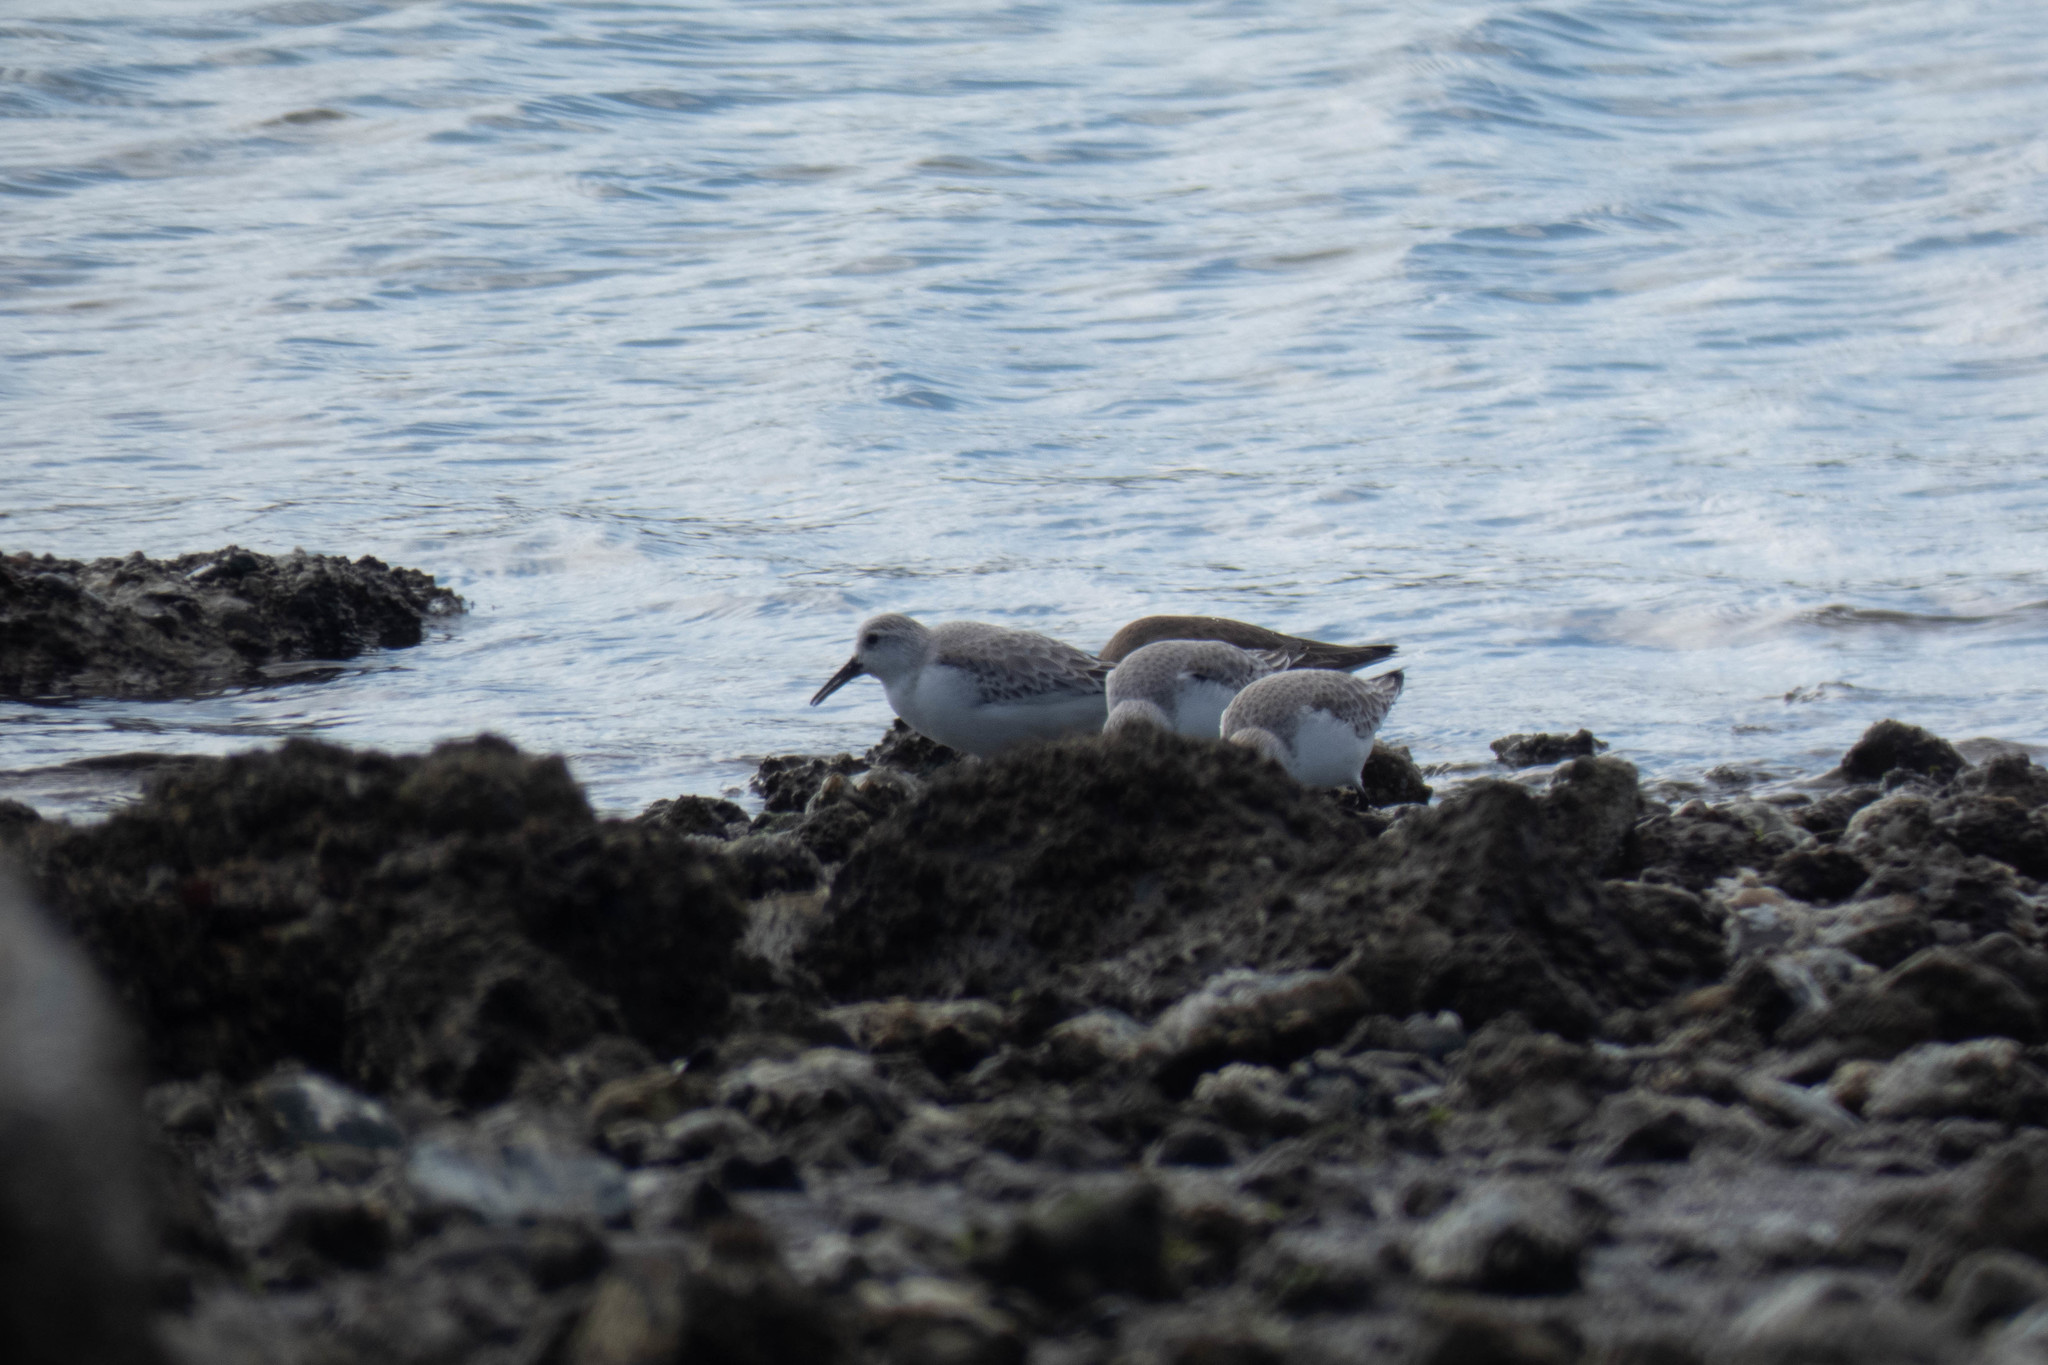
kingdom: Animalia
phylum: Chordata
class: Aves
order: Charadriiformes
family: Scolopacidae
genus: Calidris
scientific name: Calidris alba
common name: Sanderling
